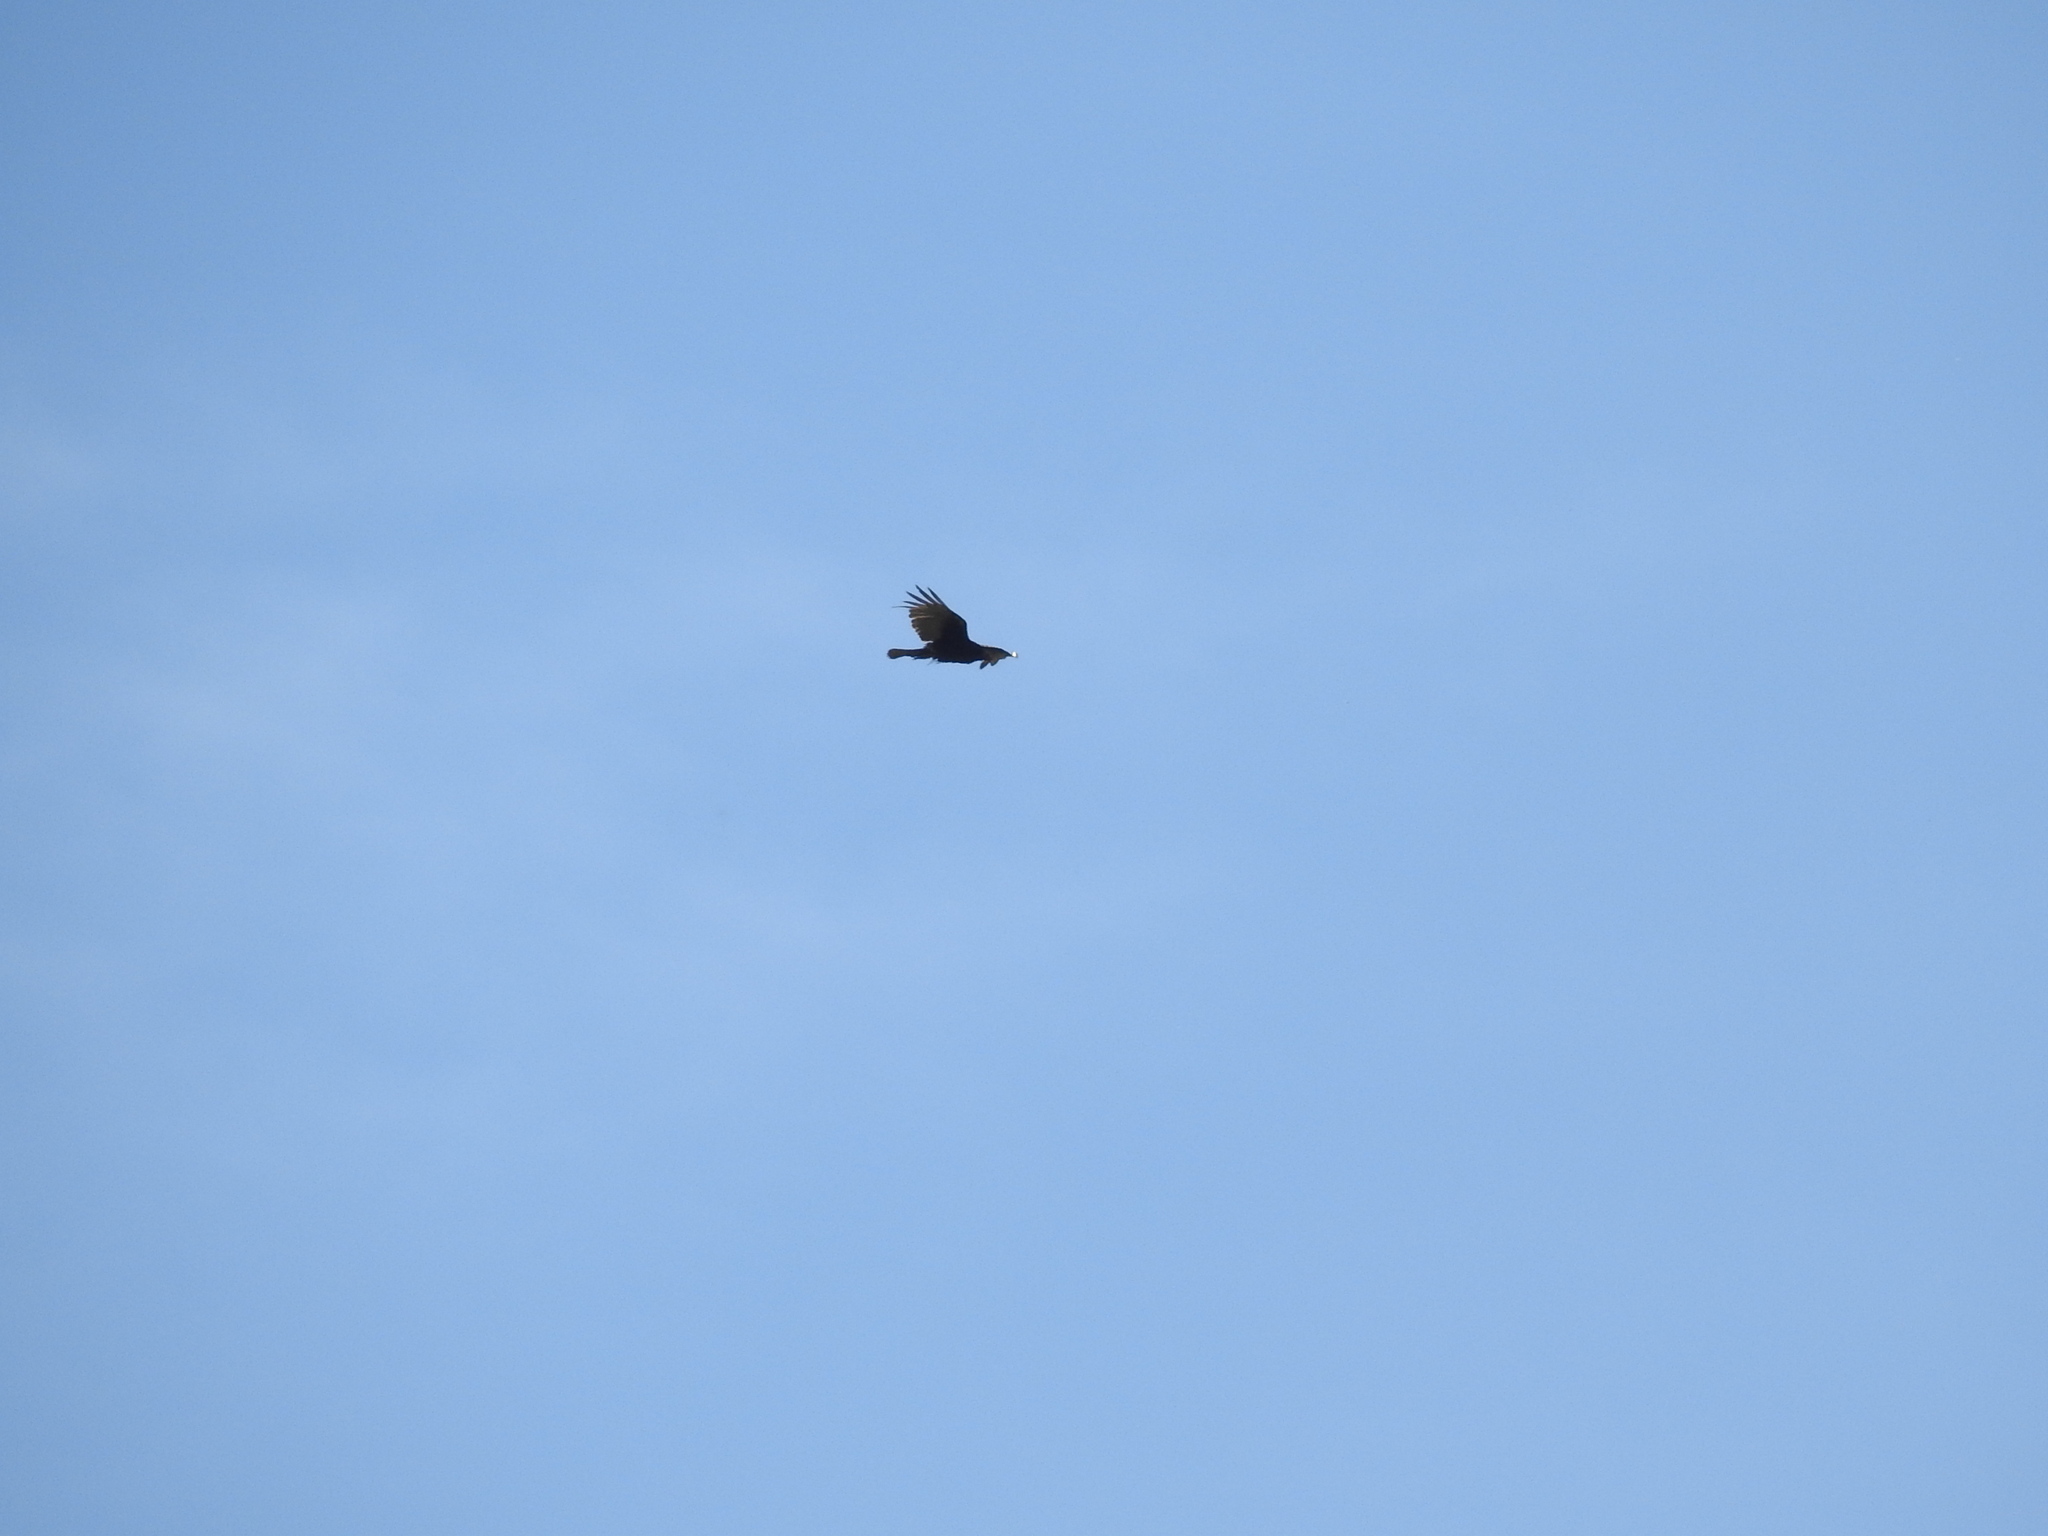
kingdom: Animalia
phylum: Chordata
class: Aves
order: Accipitriformes
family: Cathartidae
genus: Cathartes
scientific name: Cathartes aura
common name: Turkey vulture
